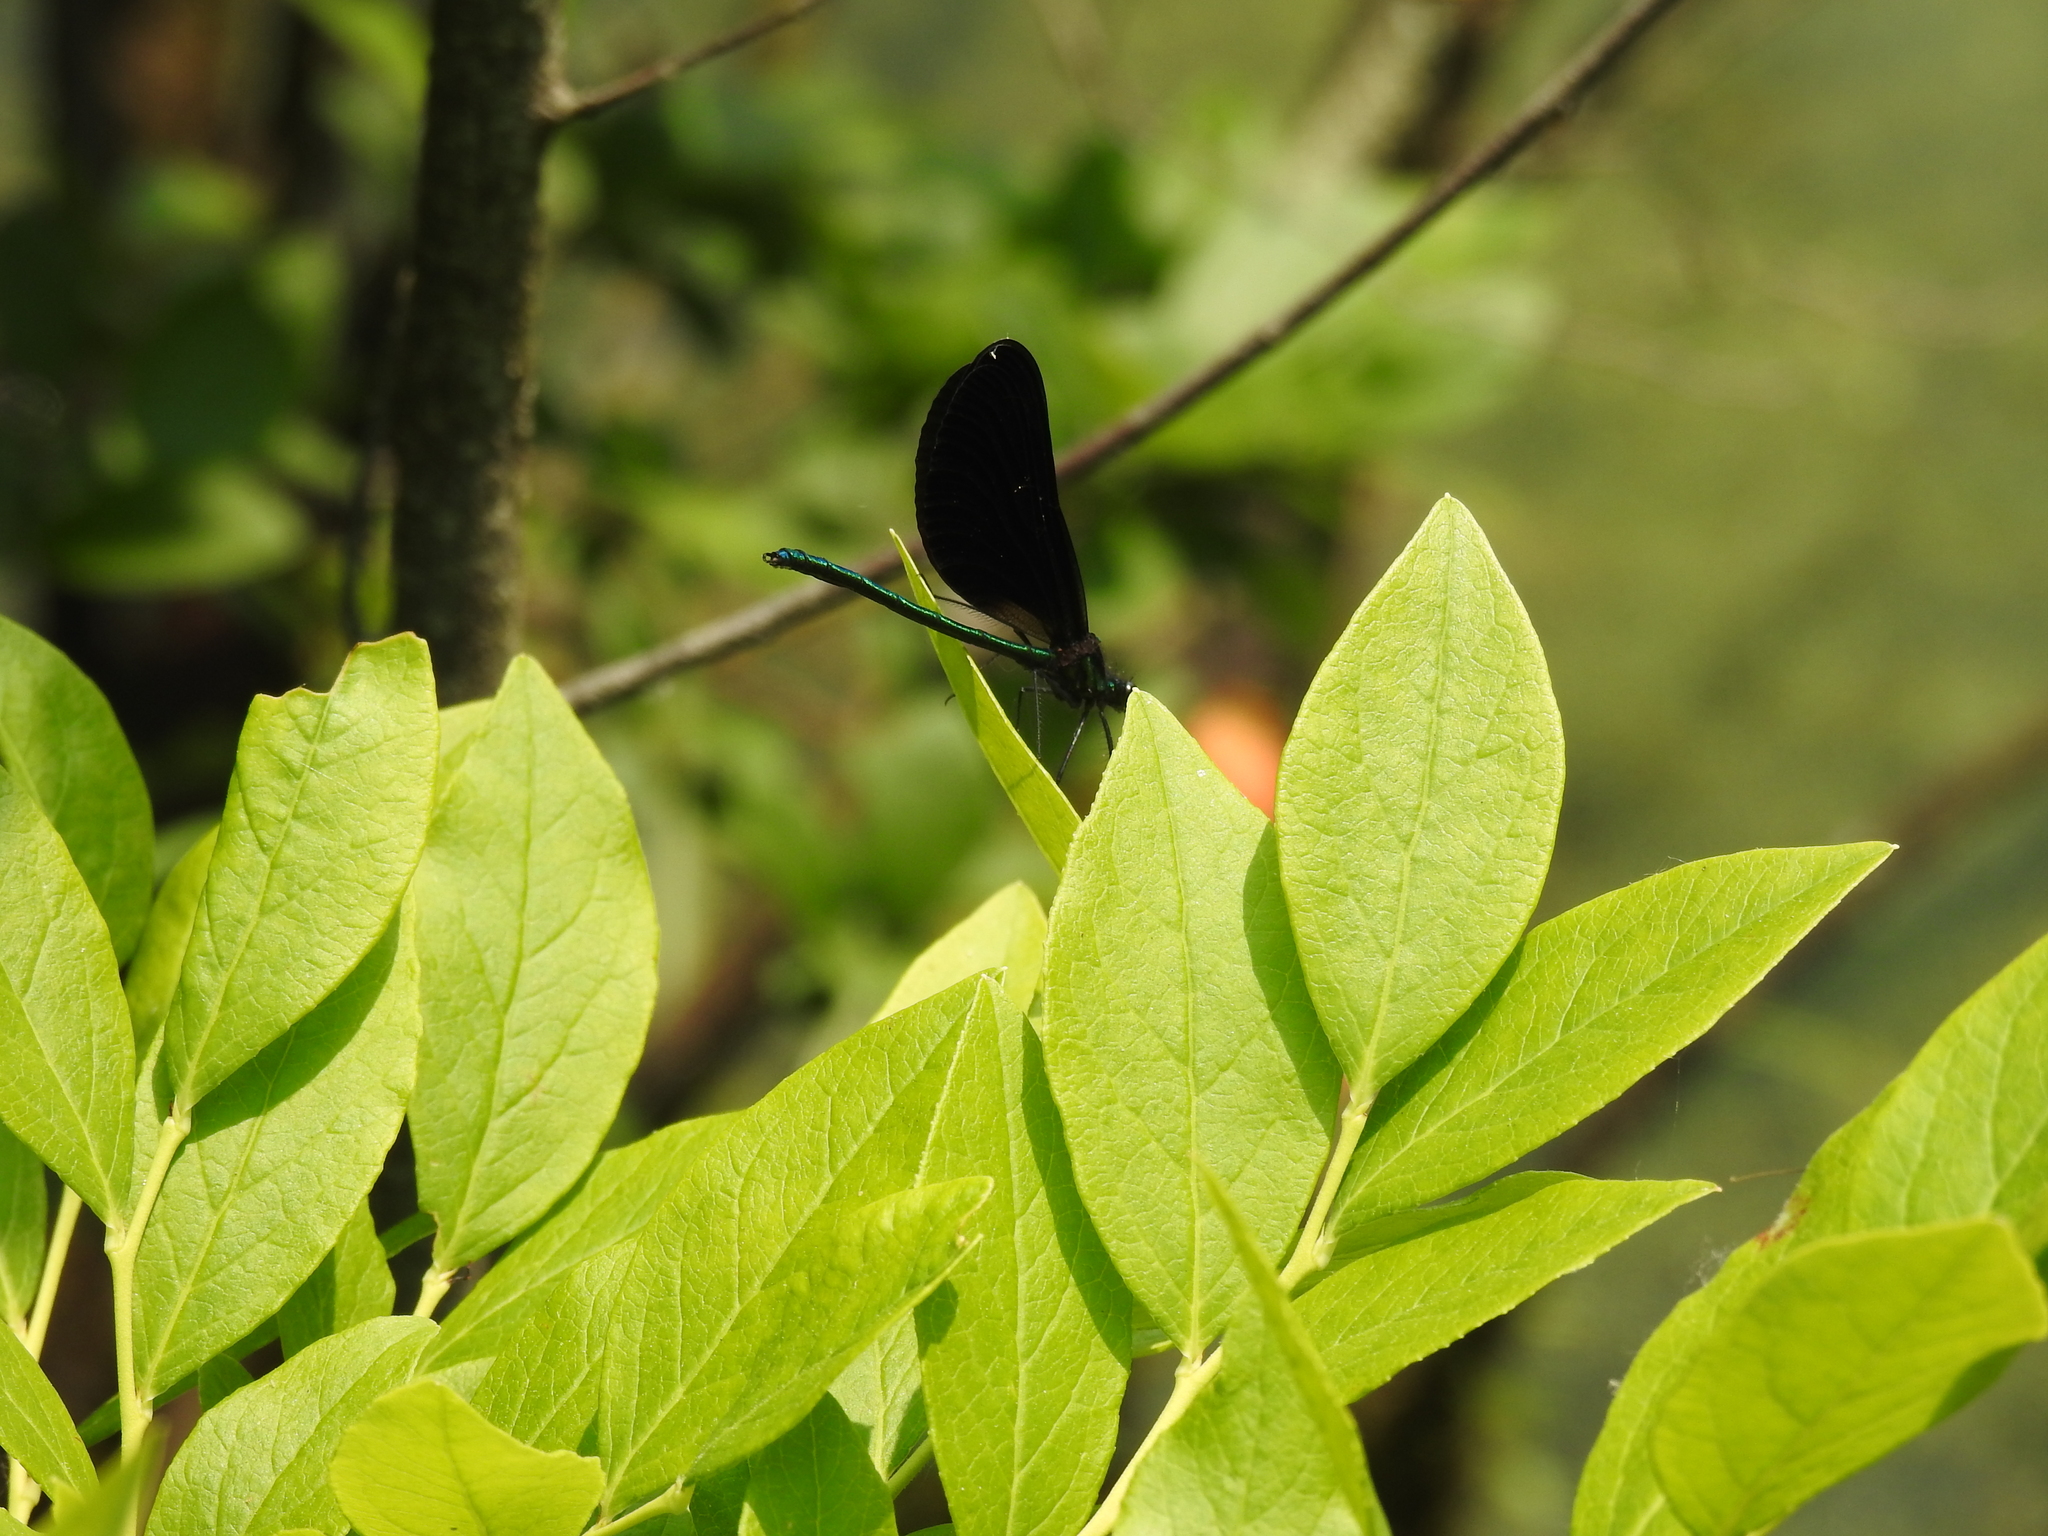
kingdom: Animalia
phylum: Arthropoda
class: Insecta
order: Odonata
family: Calopterygidae
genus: Calopteryx
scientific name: Calopteryx maculata
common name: Ebony jewelwing
